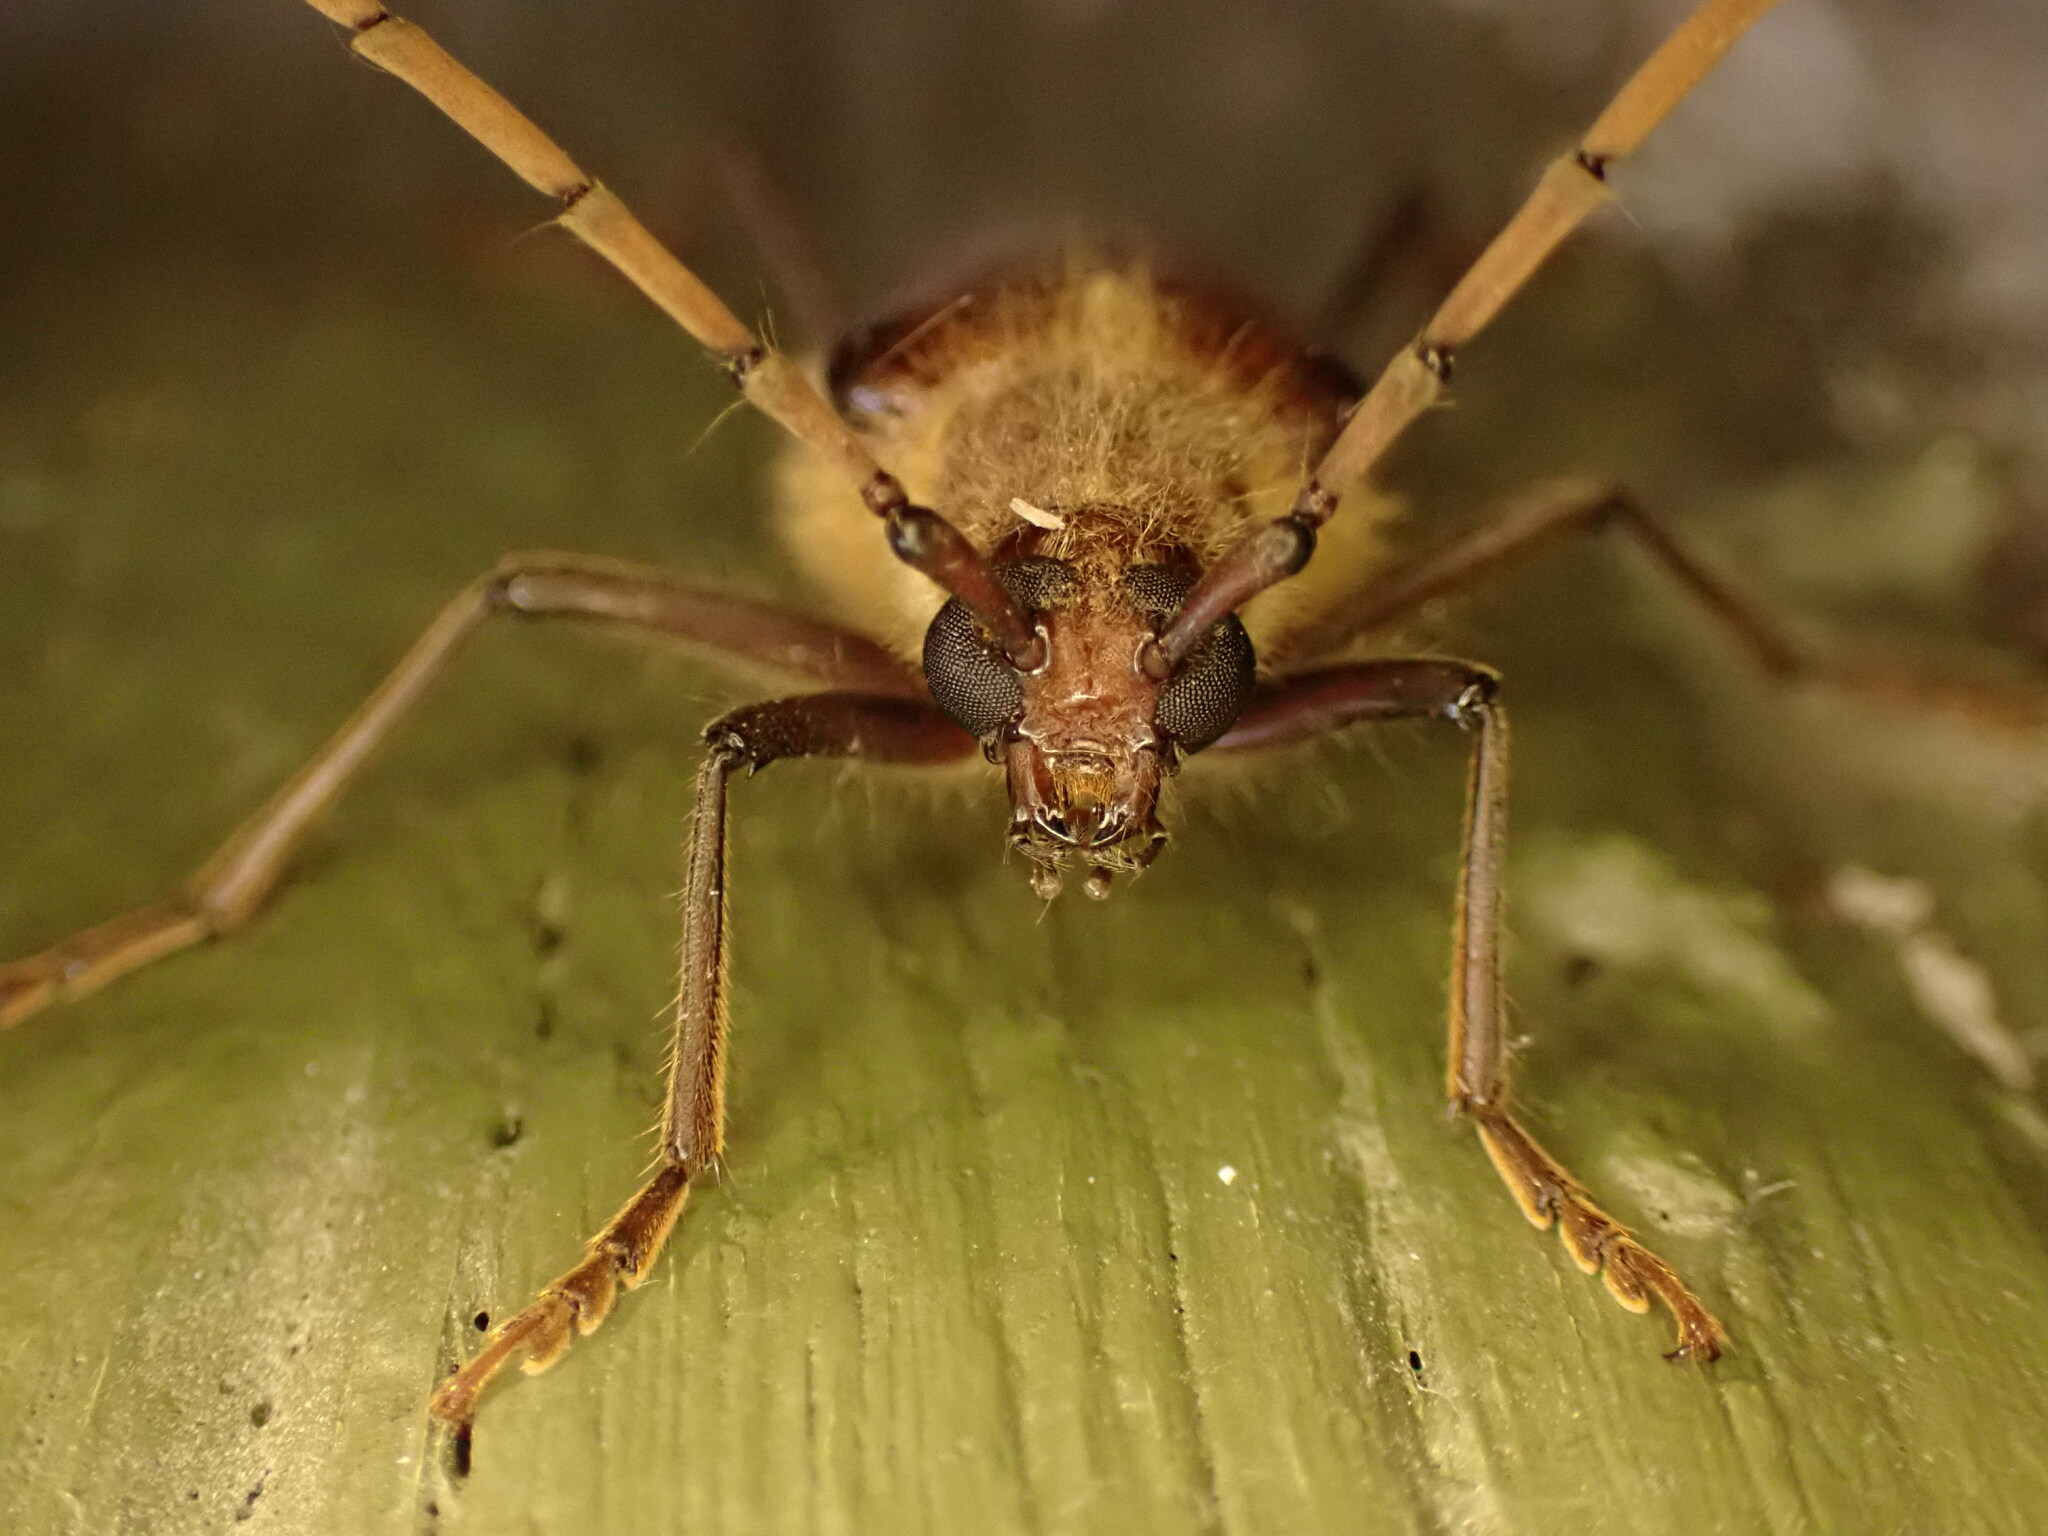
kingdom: Animalia
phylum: Arthropoda
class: Insecta
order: Coleoptera
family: Cerambycidae
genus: Ochrocydus
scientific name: Ochrocydus huttoni
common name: Kanuka longhorn
